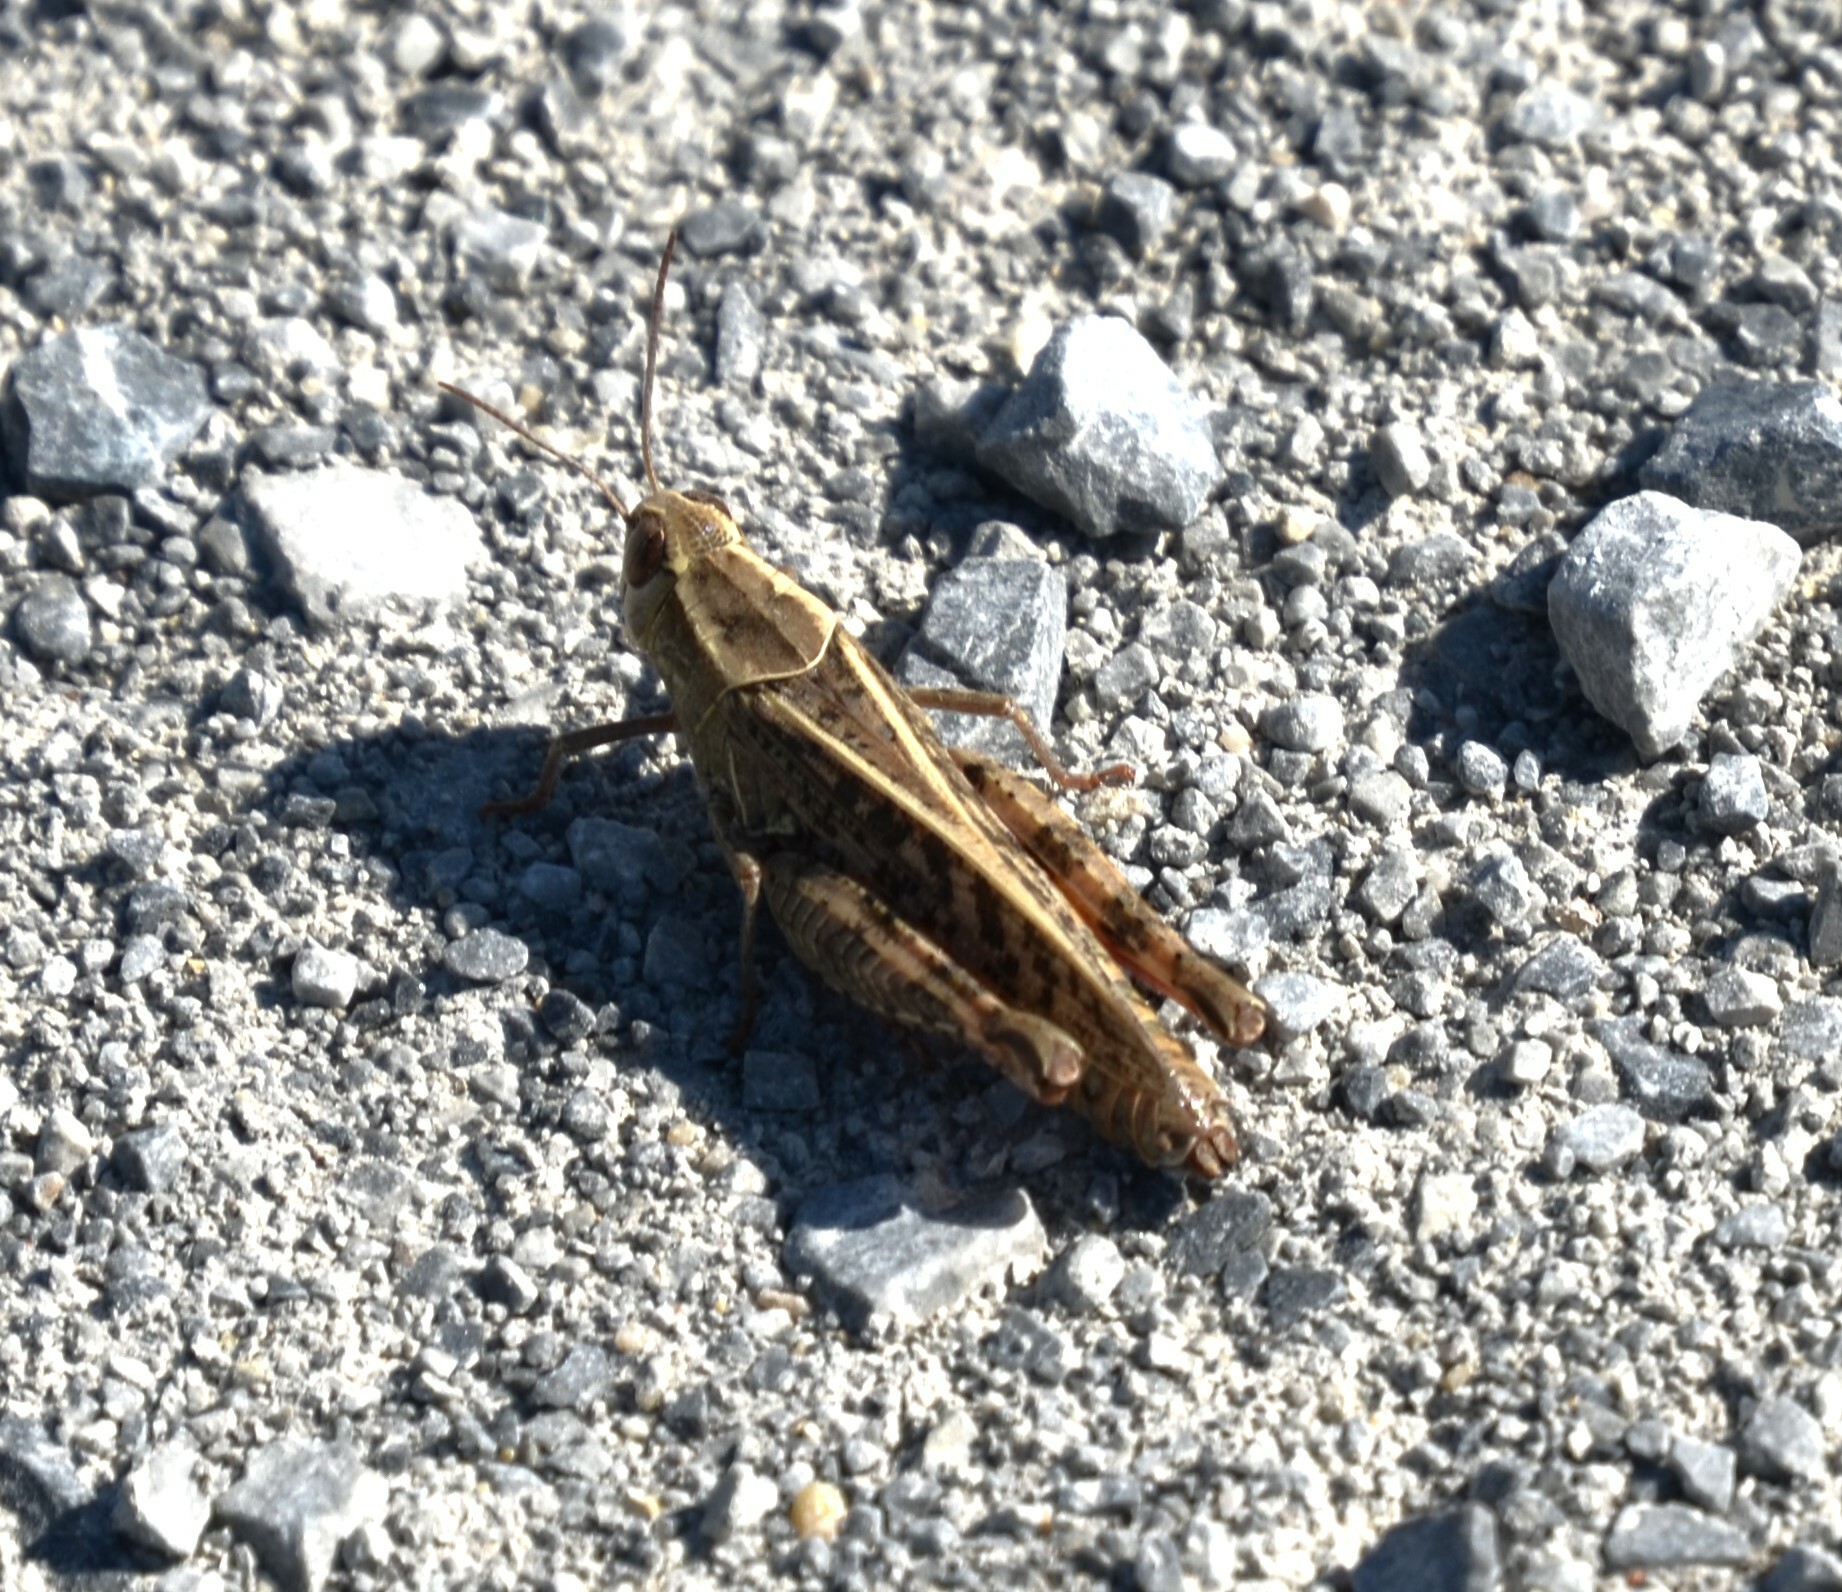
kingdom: Animalia
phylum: Arthropoda
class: Insecta
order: Orthoptera
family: Acrididae
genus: Calliptamus
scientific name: Calliptamus italicus
